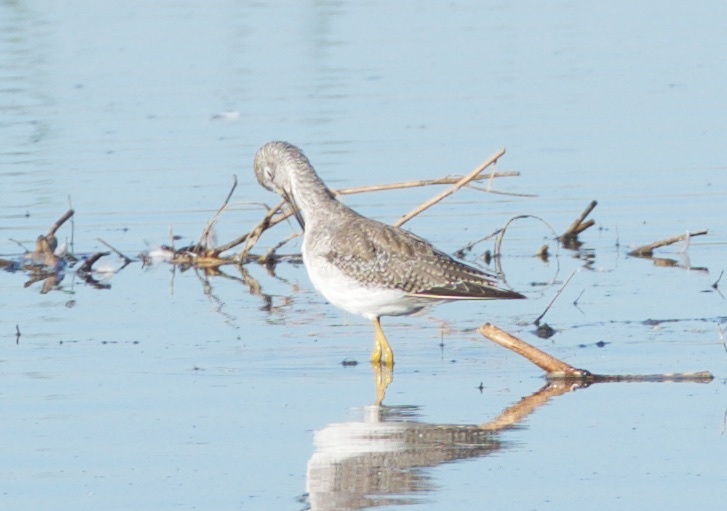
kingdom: Animalia
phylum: Chordata
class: Aves
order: Charadriiformes
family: Scolopacidae
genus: Tringa
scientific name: Tringa melanoleuca
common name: Greater yellowlegs
